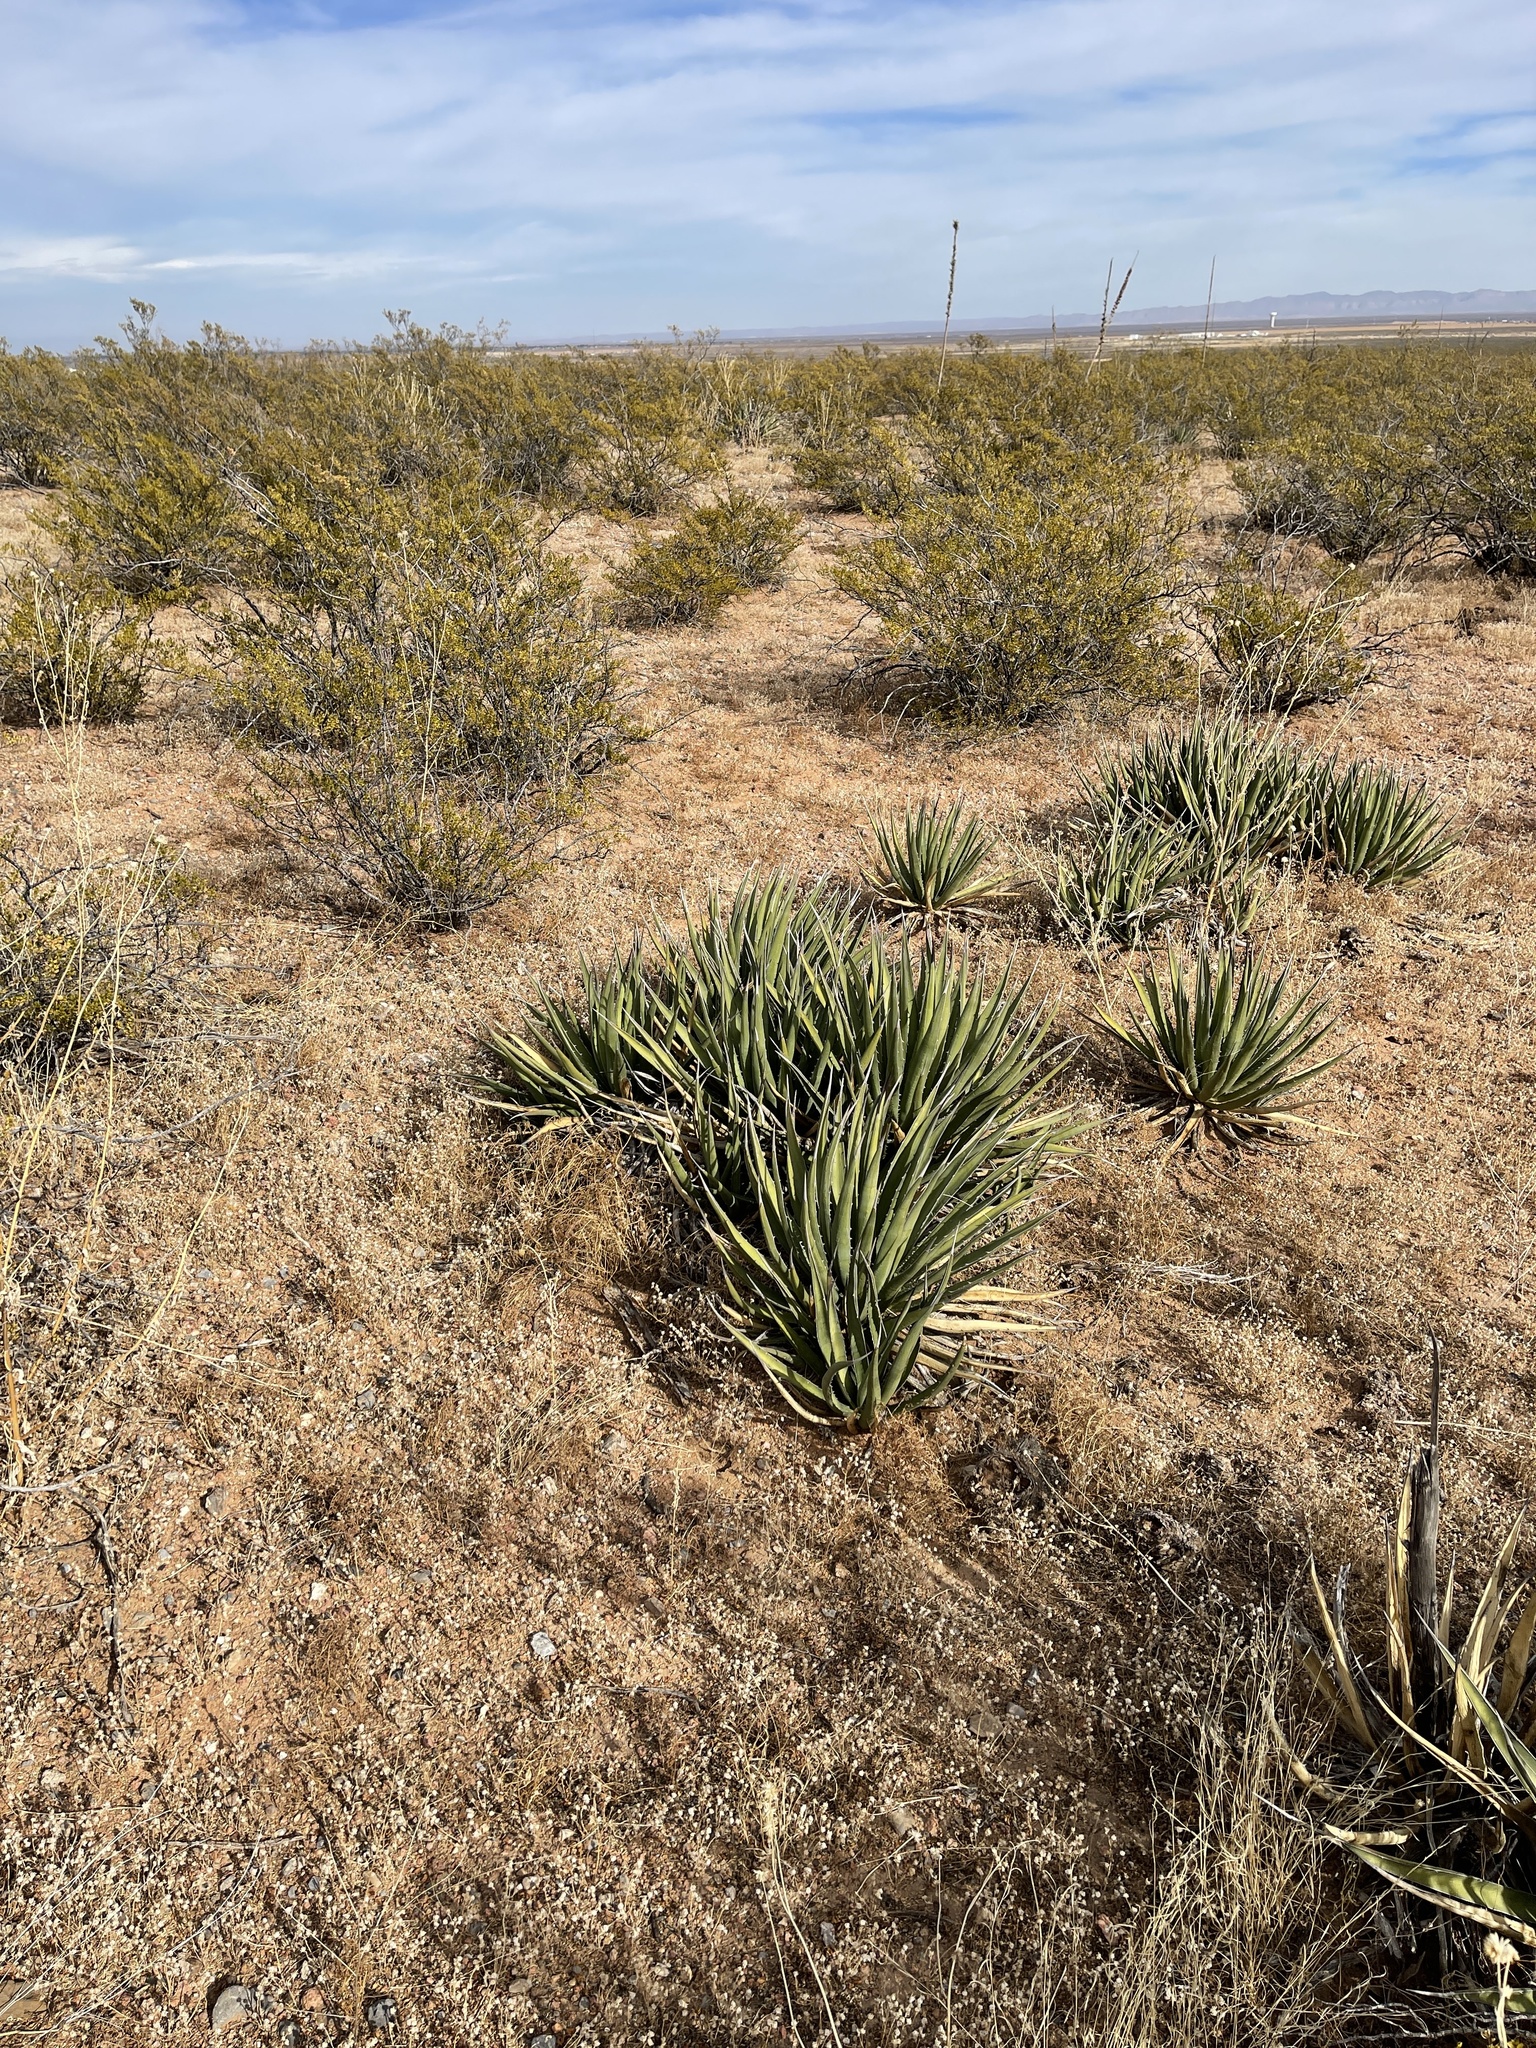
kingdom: Plantae
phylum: Tracheophyta
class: Liliopsida
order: Asparagales
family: Asparagaceae
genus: Agave
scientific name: Agave lechuguilla
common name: Lecheguilla agave
